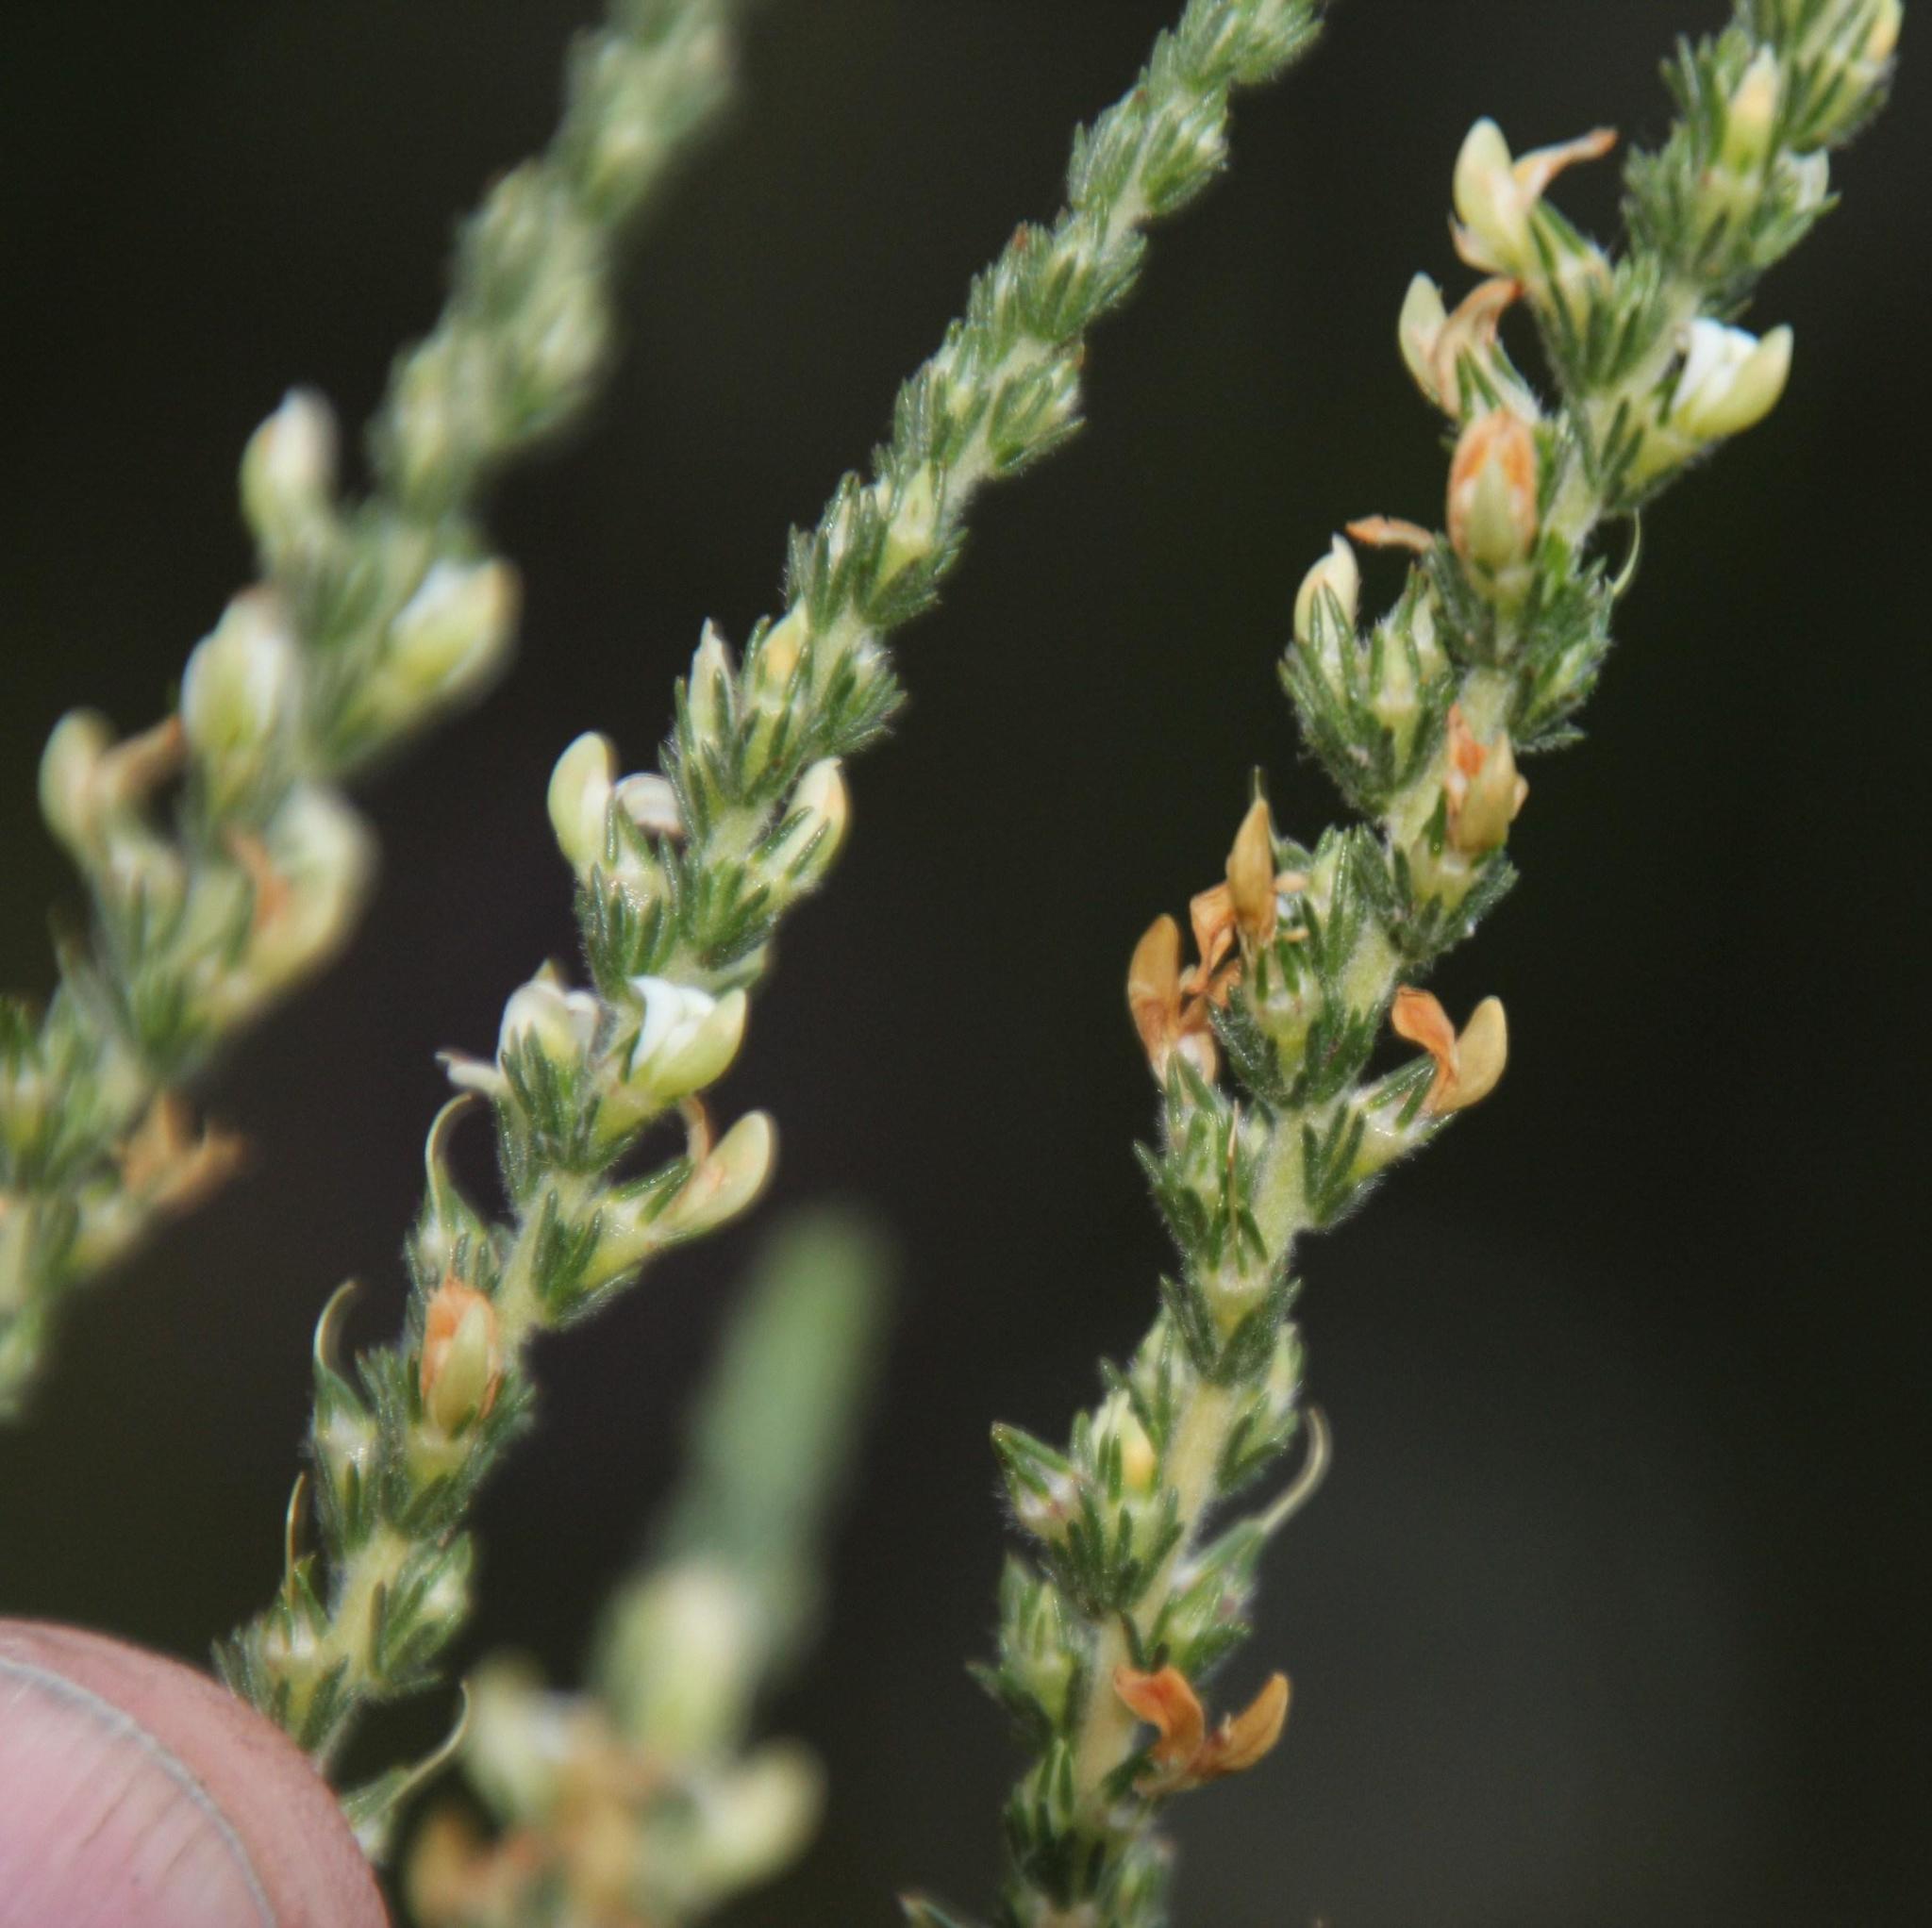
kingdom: Plantae
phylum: Tracheophyta
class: Magnoliopsida
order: Fabales
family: Fabaceae
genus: Aspalathus
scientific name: Aspalathus hispida
